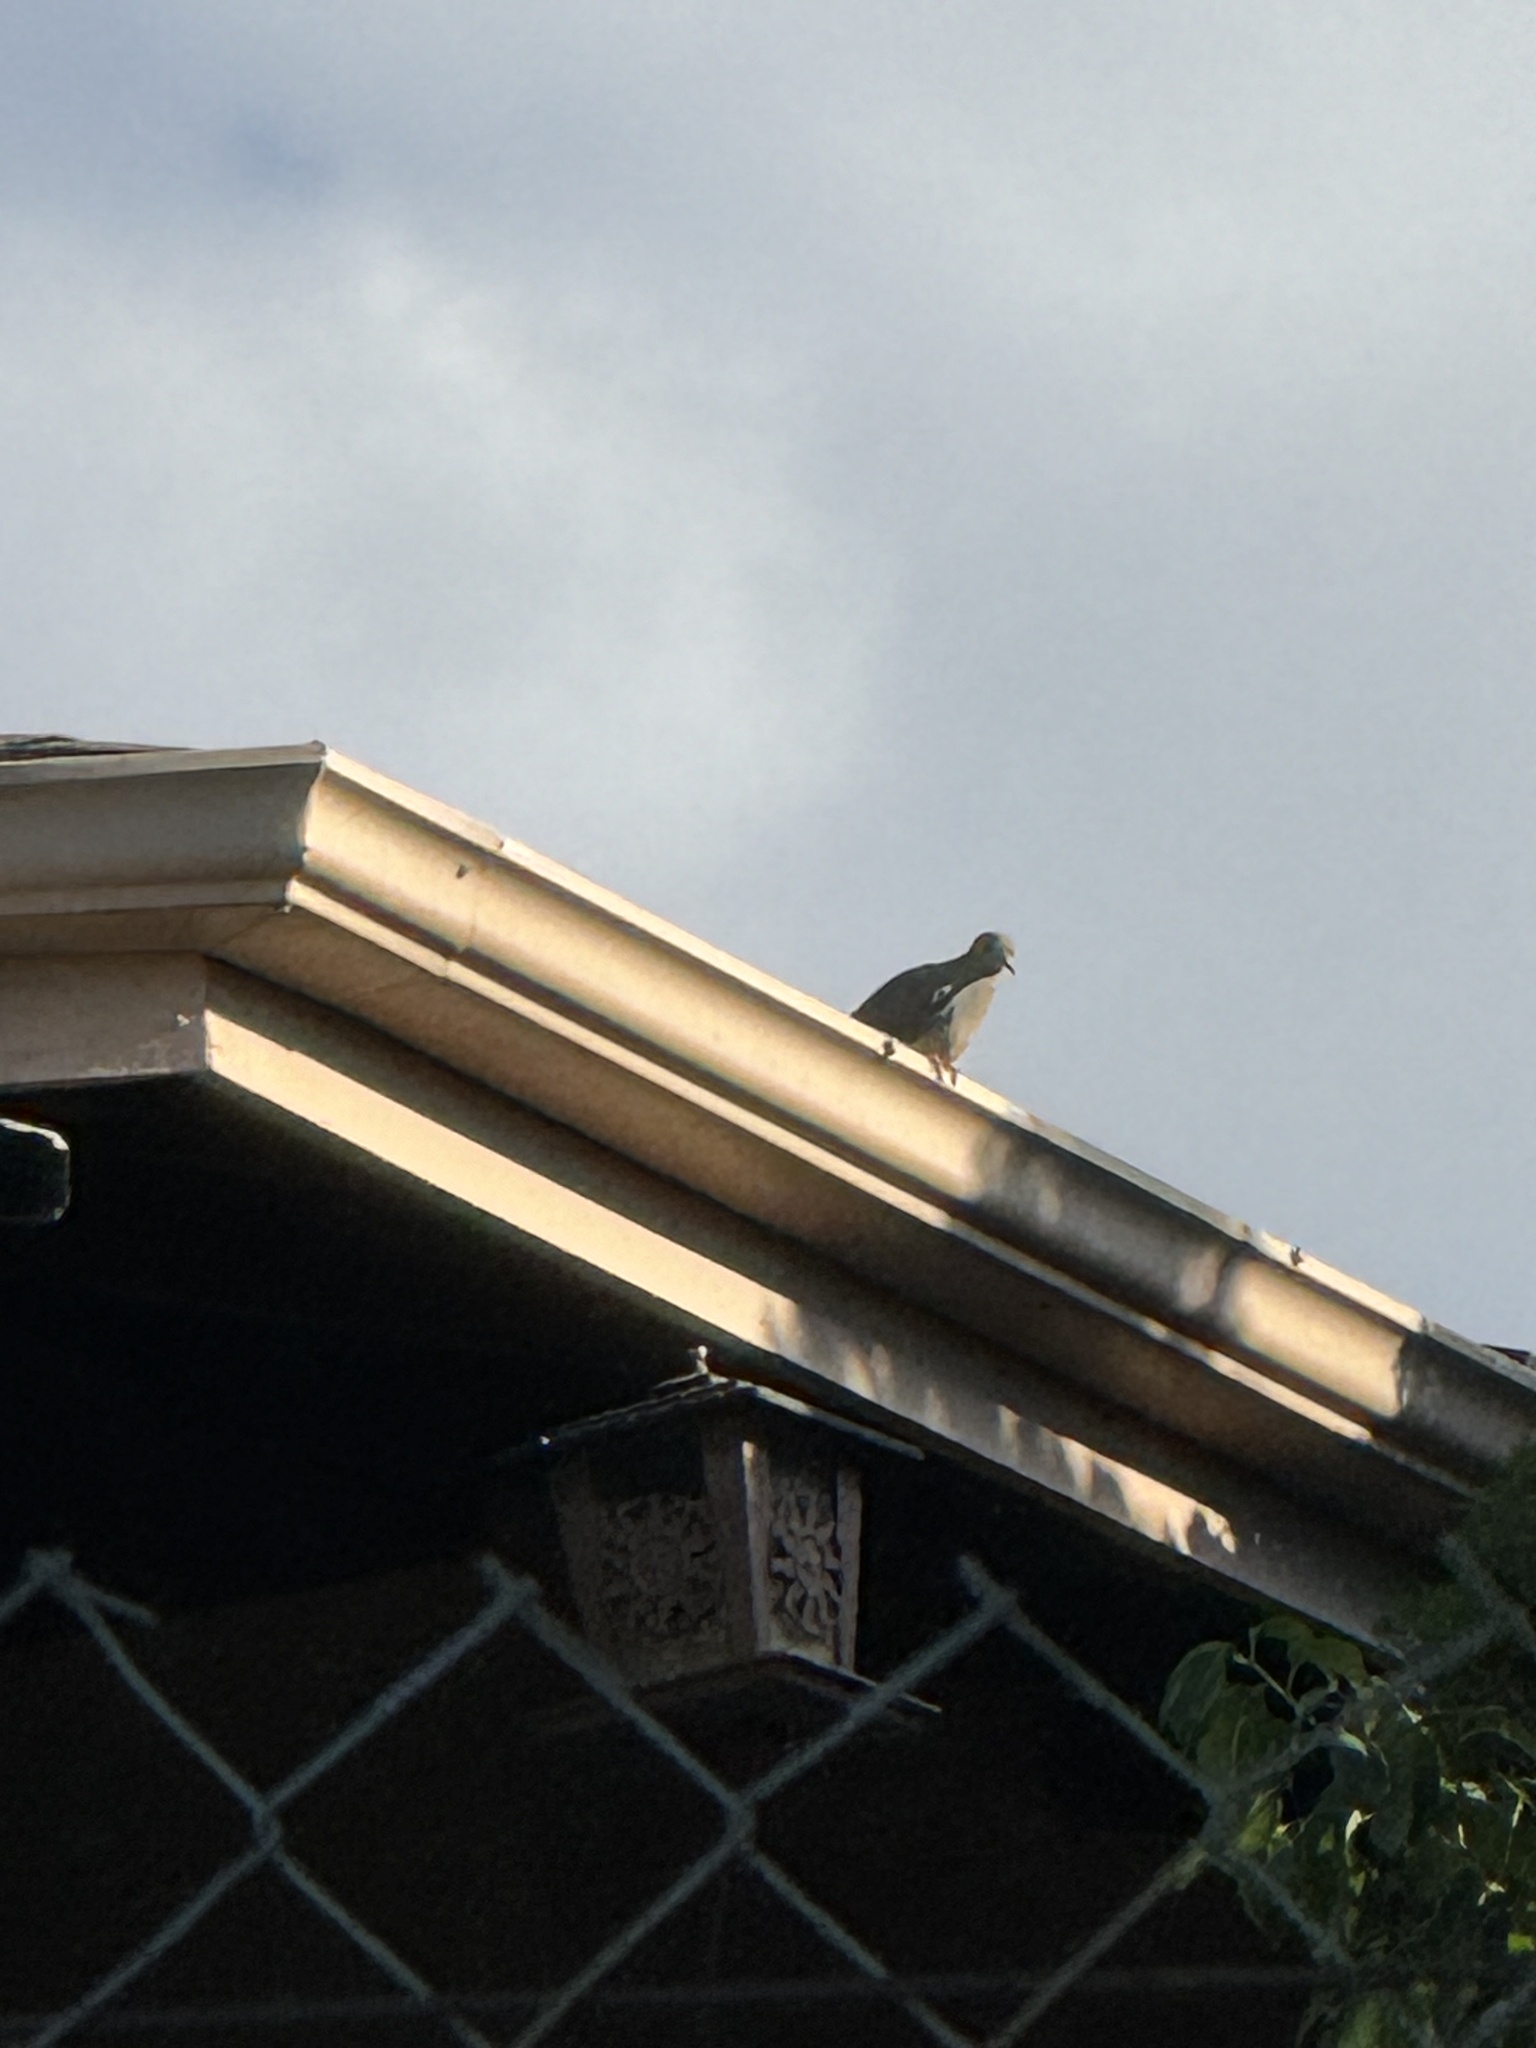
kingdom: Animalia
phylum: Chordata
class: Aves
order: Columbiformes
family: Columbidae
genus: Zenaida
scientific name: Zenaida macroura
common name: Mourning dove
